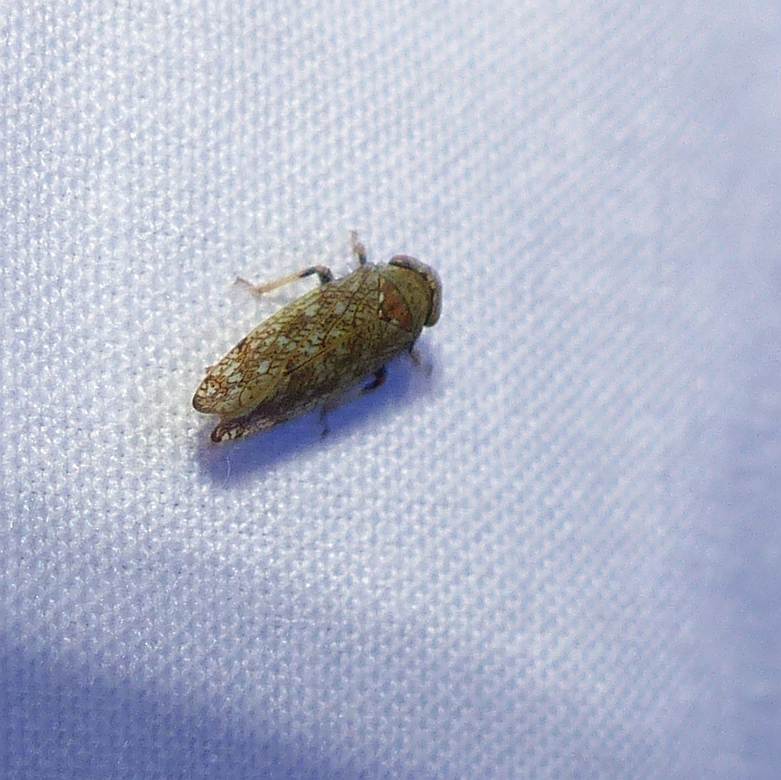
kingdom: Animalia
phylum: Arthropoda
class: Insecta
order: Hemiptera
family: Cicadellidae
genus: Orientus
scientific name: Orientus ishidae
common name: Japanese leafhopper
